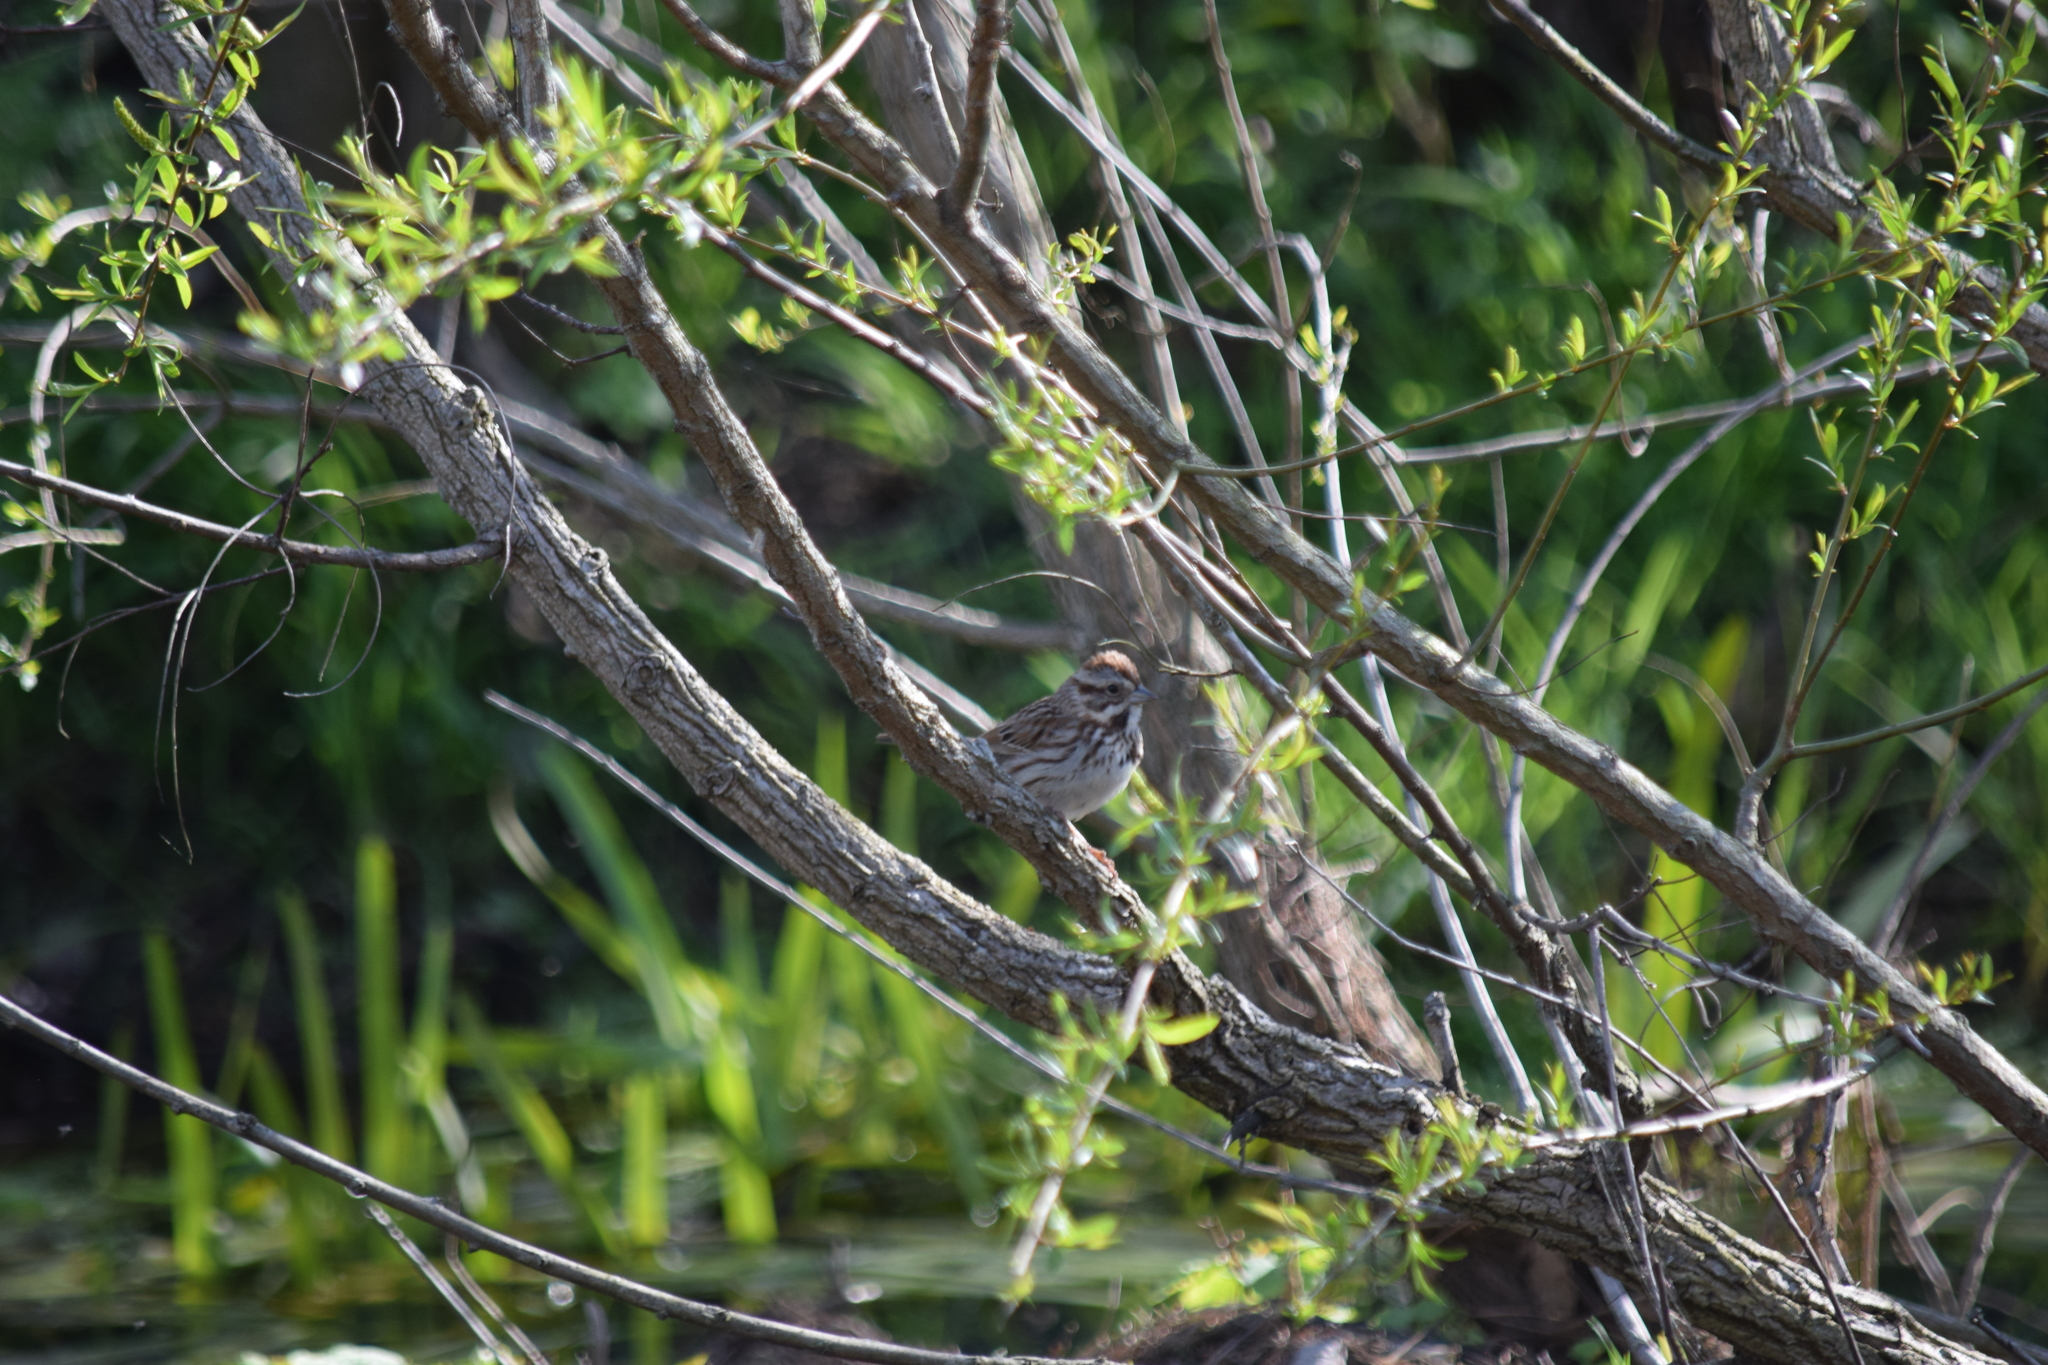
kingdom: Animalia
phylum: Chordata
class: Aves
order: Passeriformes
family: Passerellidae
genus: Melospiza
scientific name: Melospiza melodia
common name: Song sparrow
